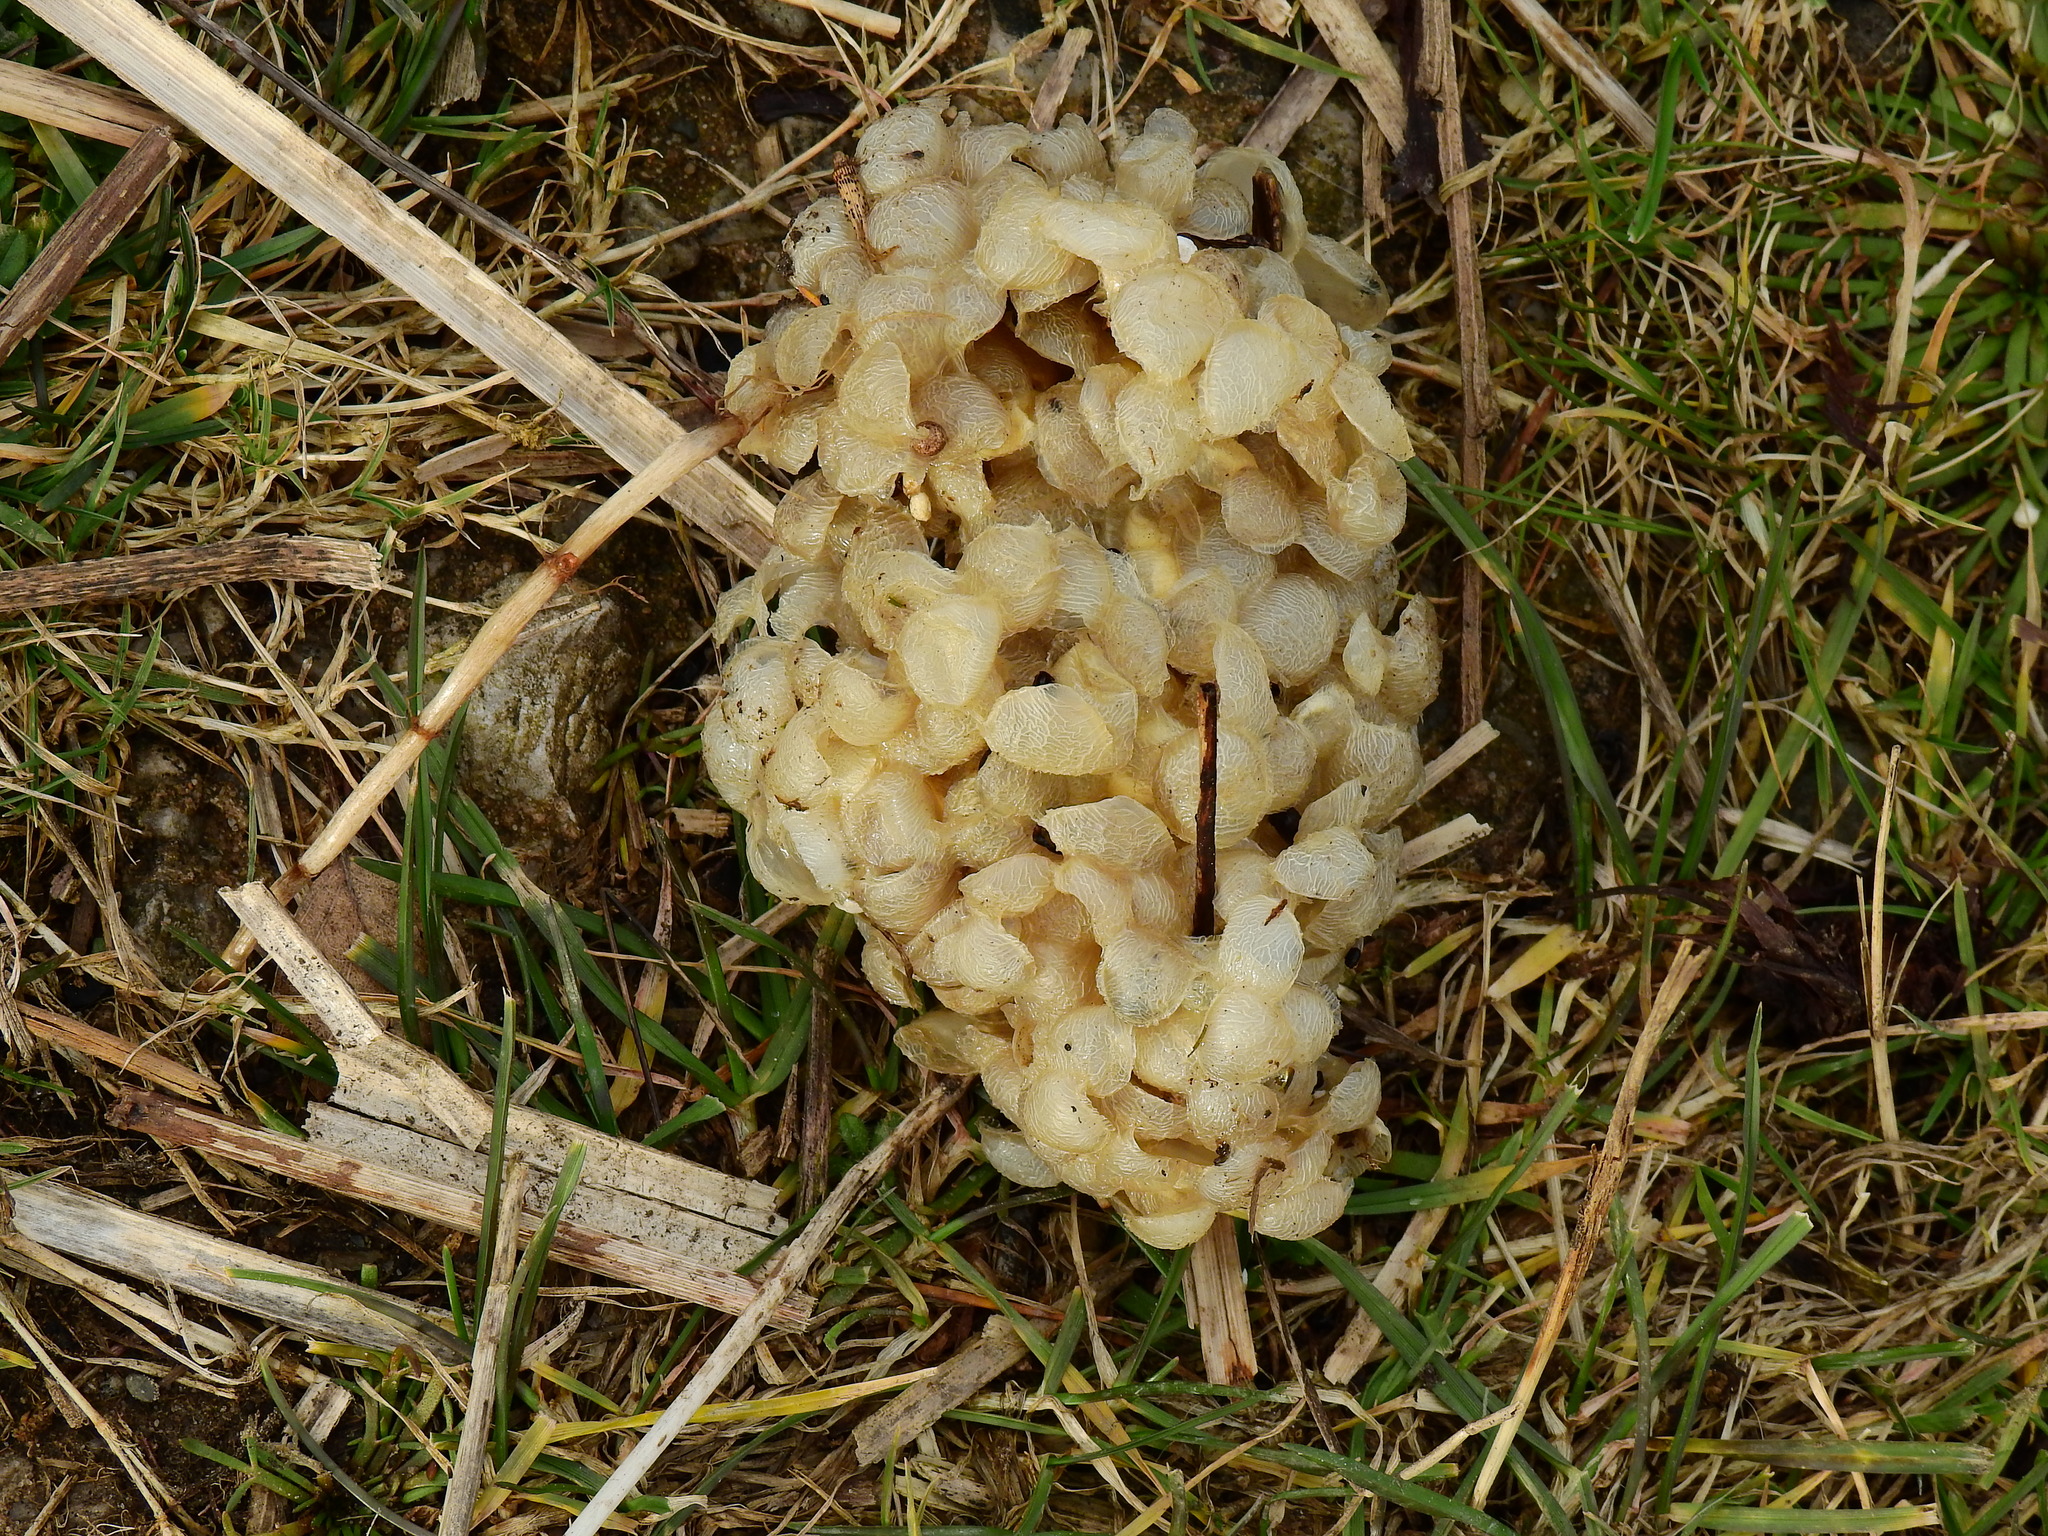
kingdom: Animalia
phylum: Mollusca
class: Gastropoda
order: Neogastropoda
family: Buccinidae
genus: Buccinum
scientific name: Buccinum undatum
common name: Common whelk
